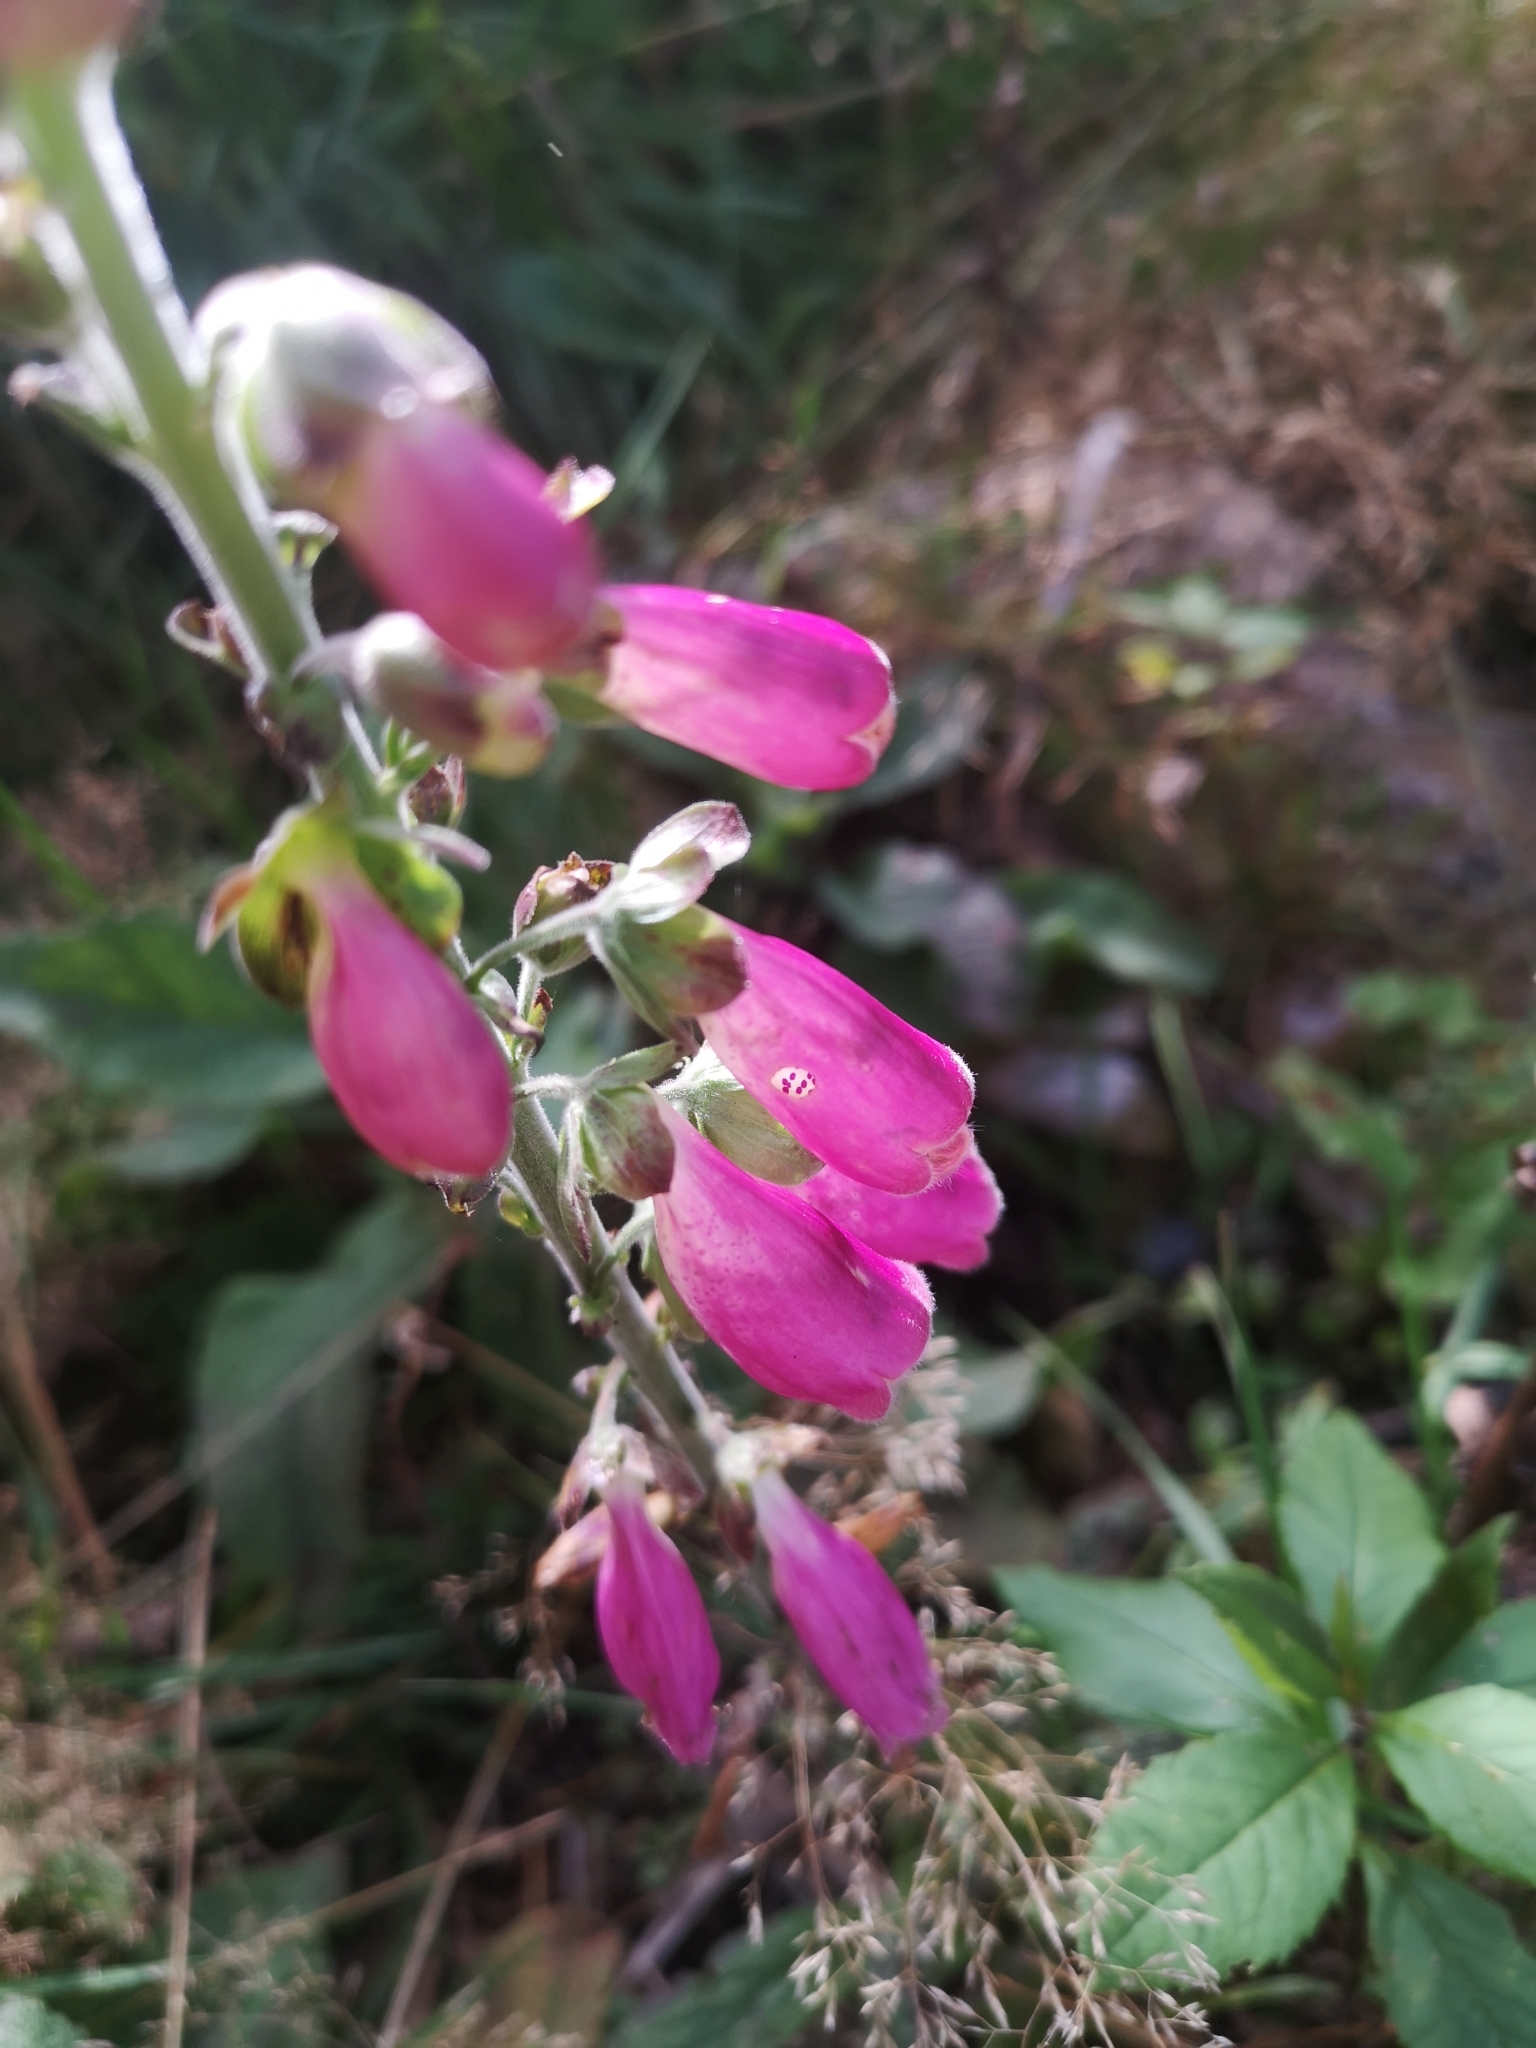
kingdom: Plantae
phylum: Tracheophyta
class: Magnoliopsida
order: Lamiales
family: Plantaginaceae
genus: Digitalis
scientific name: Digitalis purpurea
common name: Foxglove
